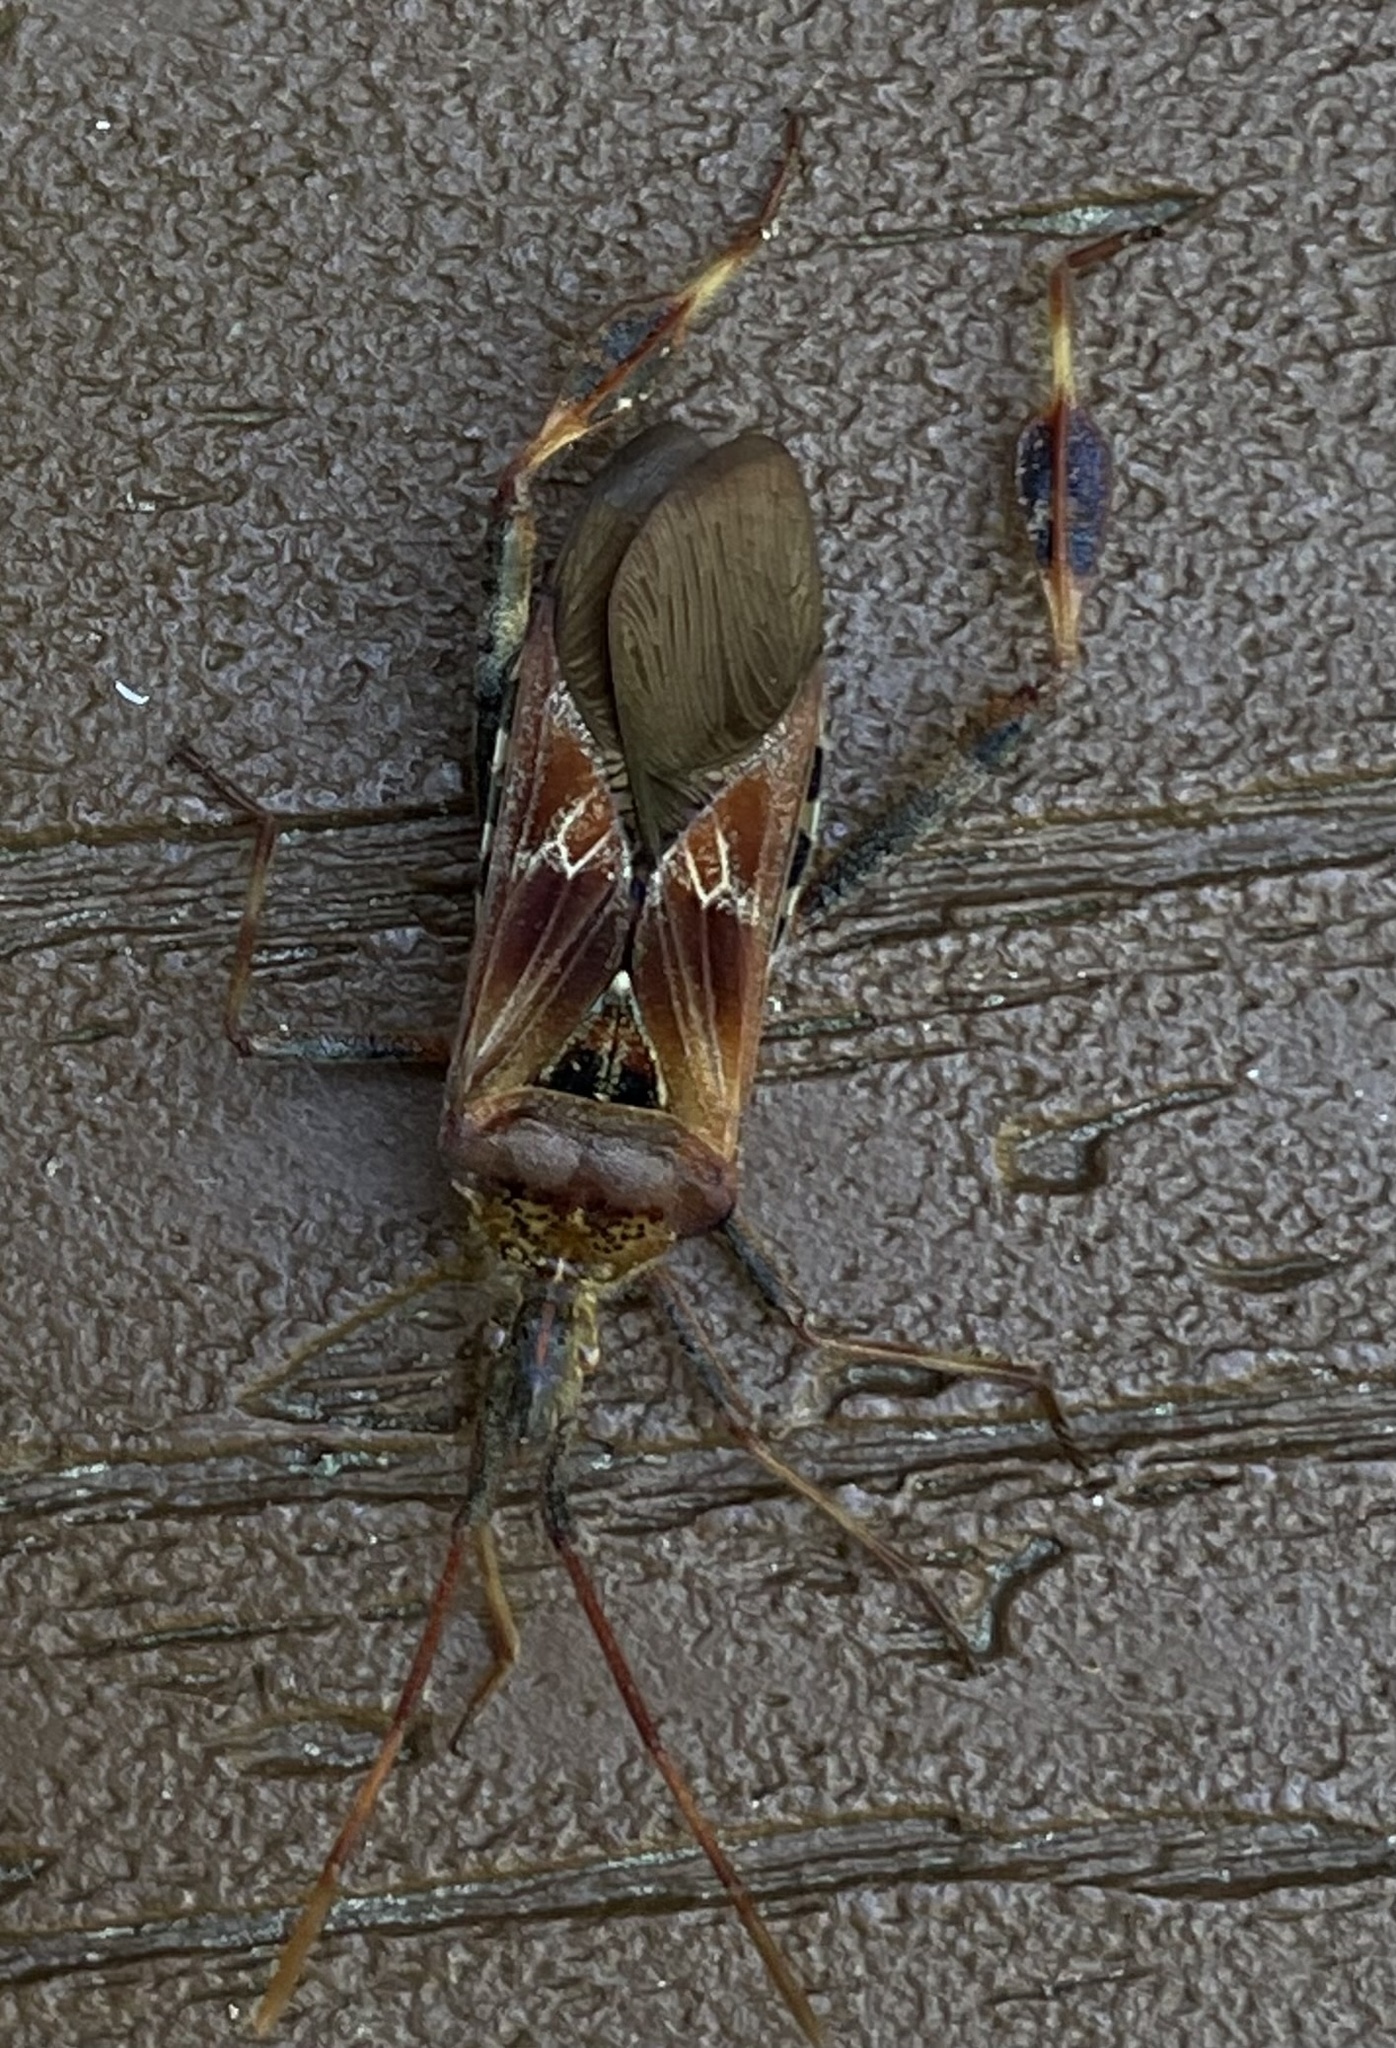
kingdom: Animalia
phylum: Arthropoda
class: Insecta
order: Hemiptera
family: Coreidae
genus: Leptoglossus
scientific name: Leptoglossus occidentalis
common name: Western conifer-seed bug
